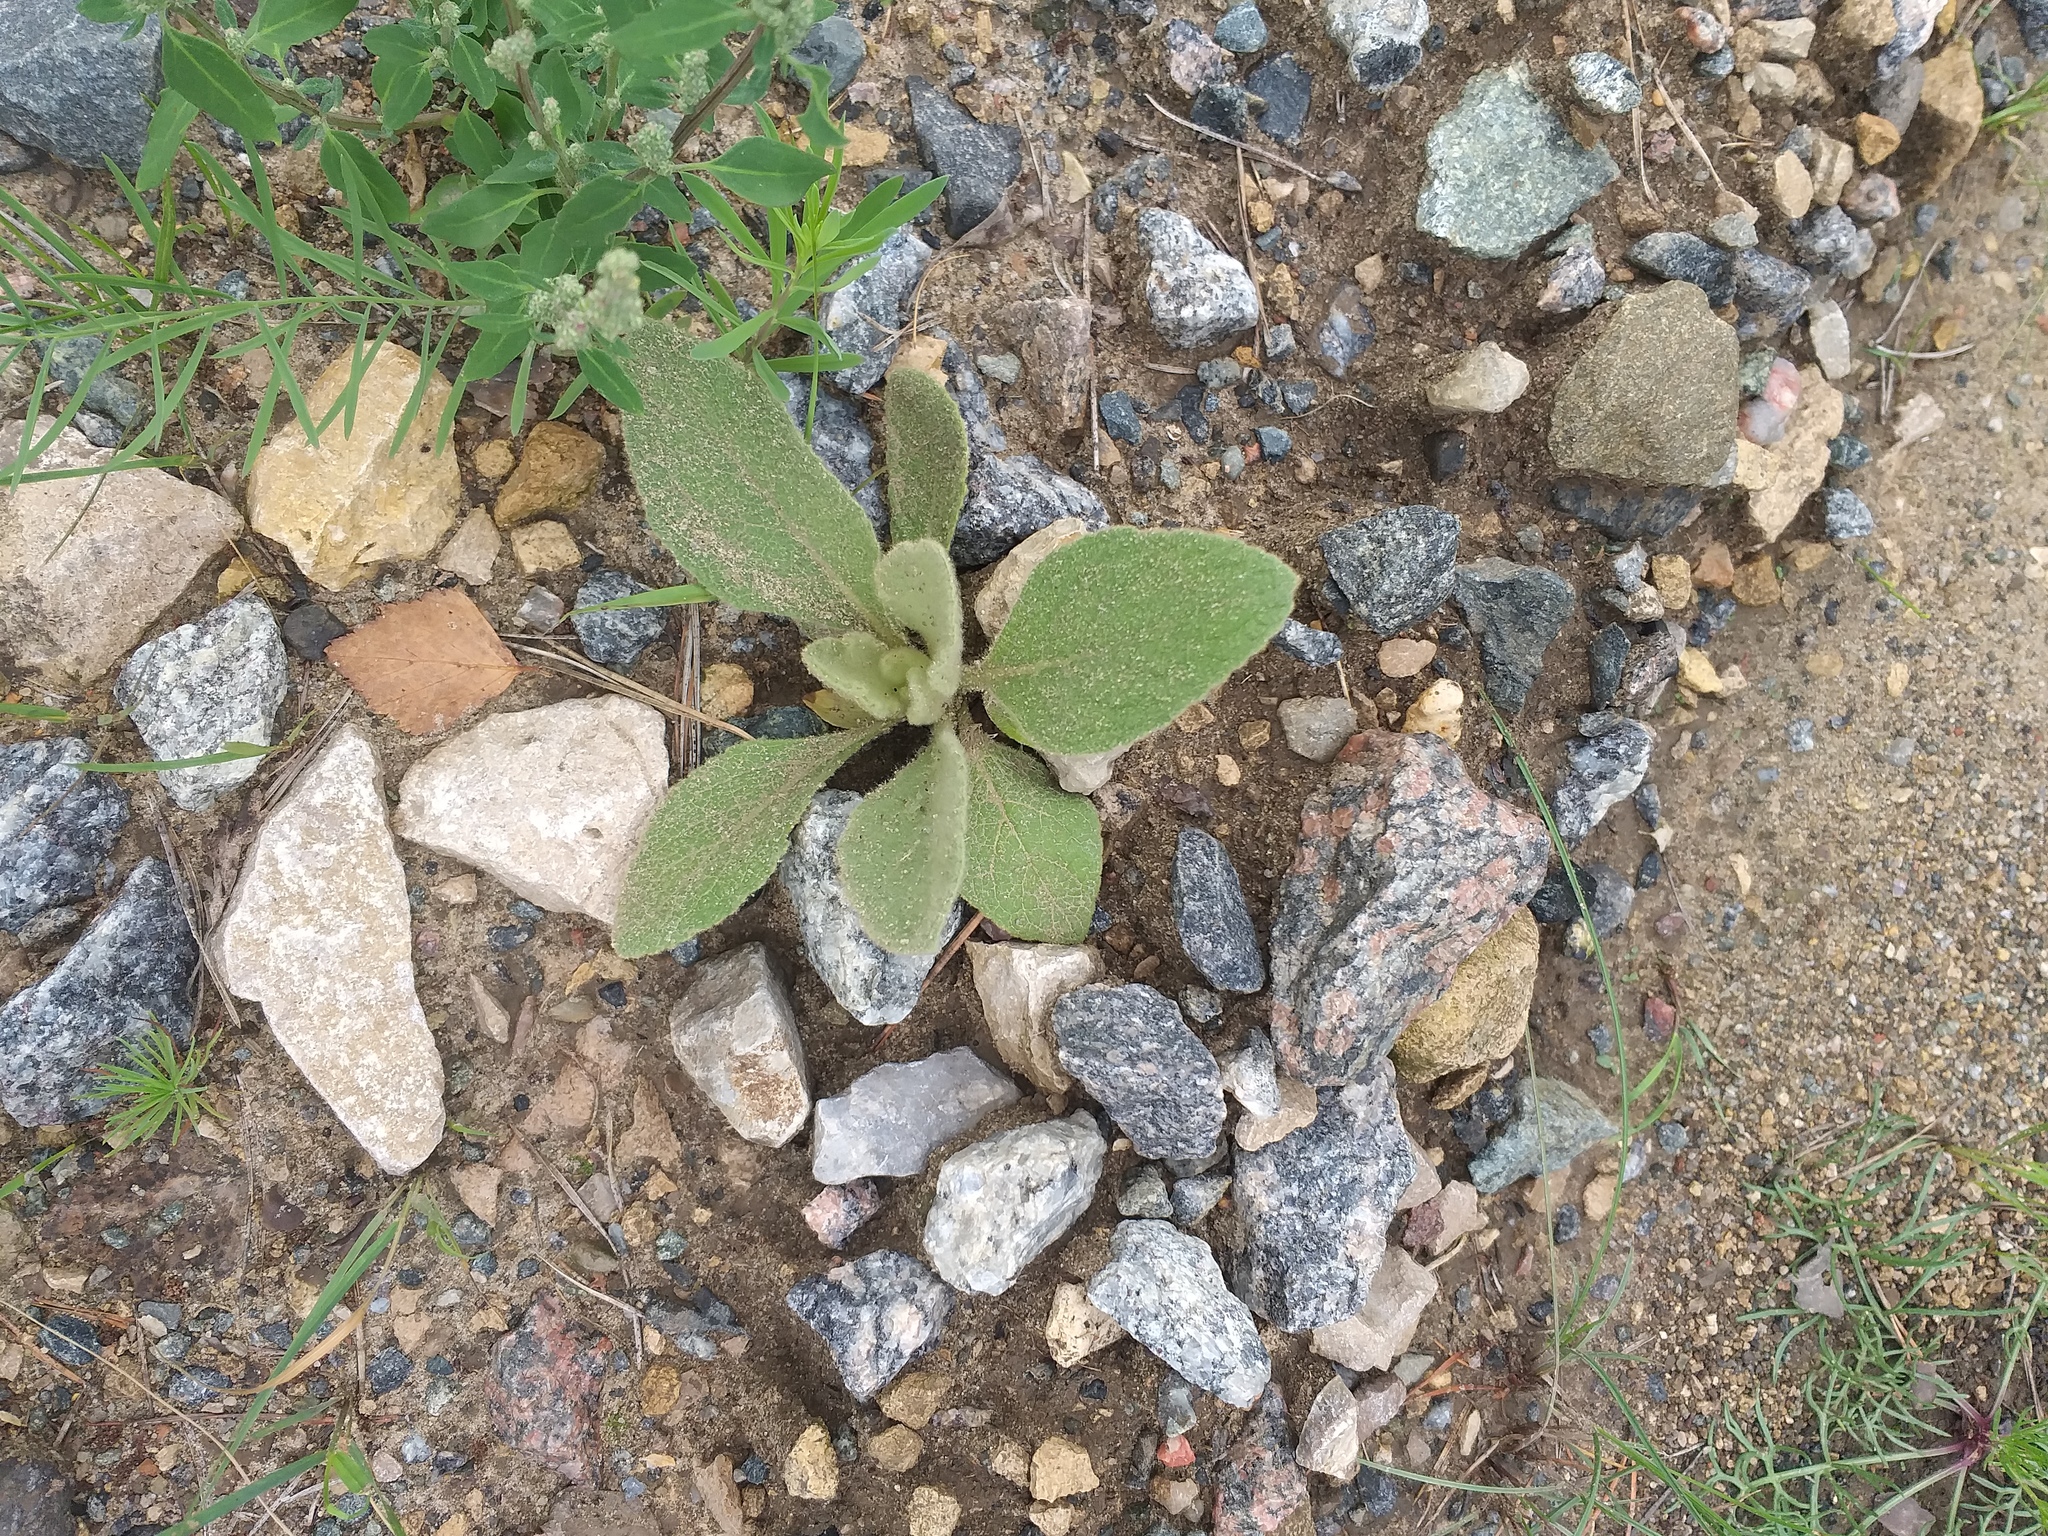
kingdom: Plantae
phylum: Tracheophyta
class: Magnoliopsida
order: Lamiales
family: Scrophulariaceae
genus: Verbascum
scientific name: Verbascum thapsus
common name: Common mullein
